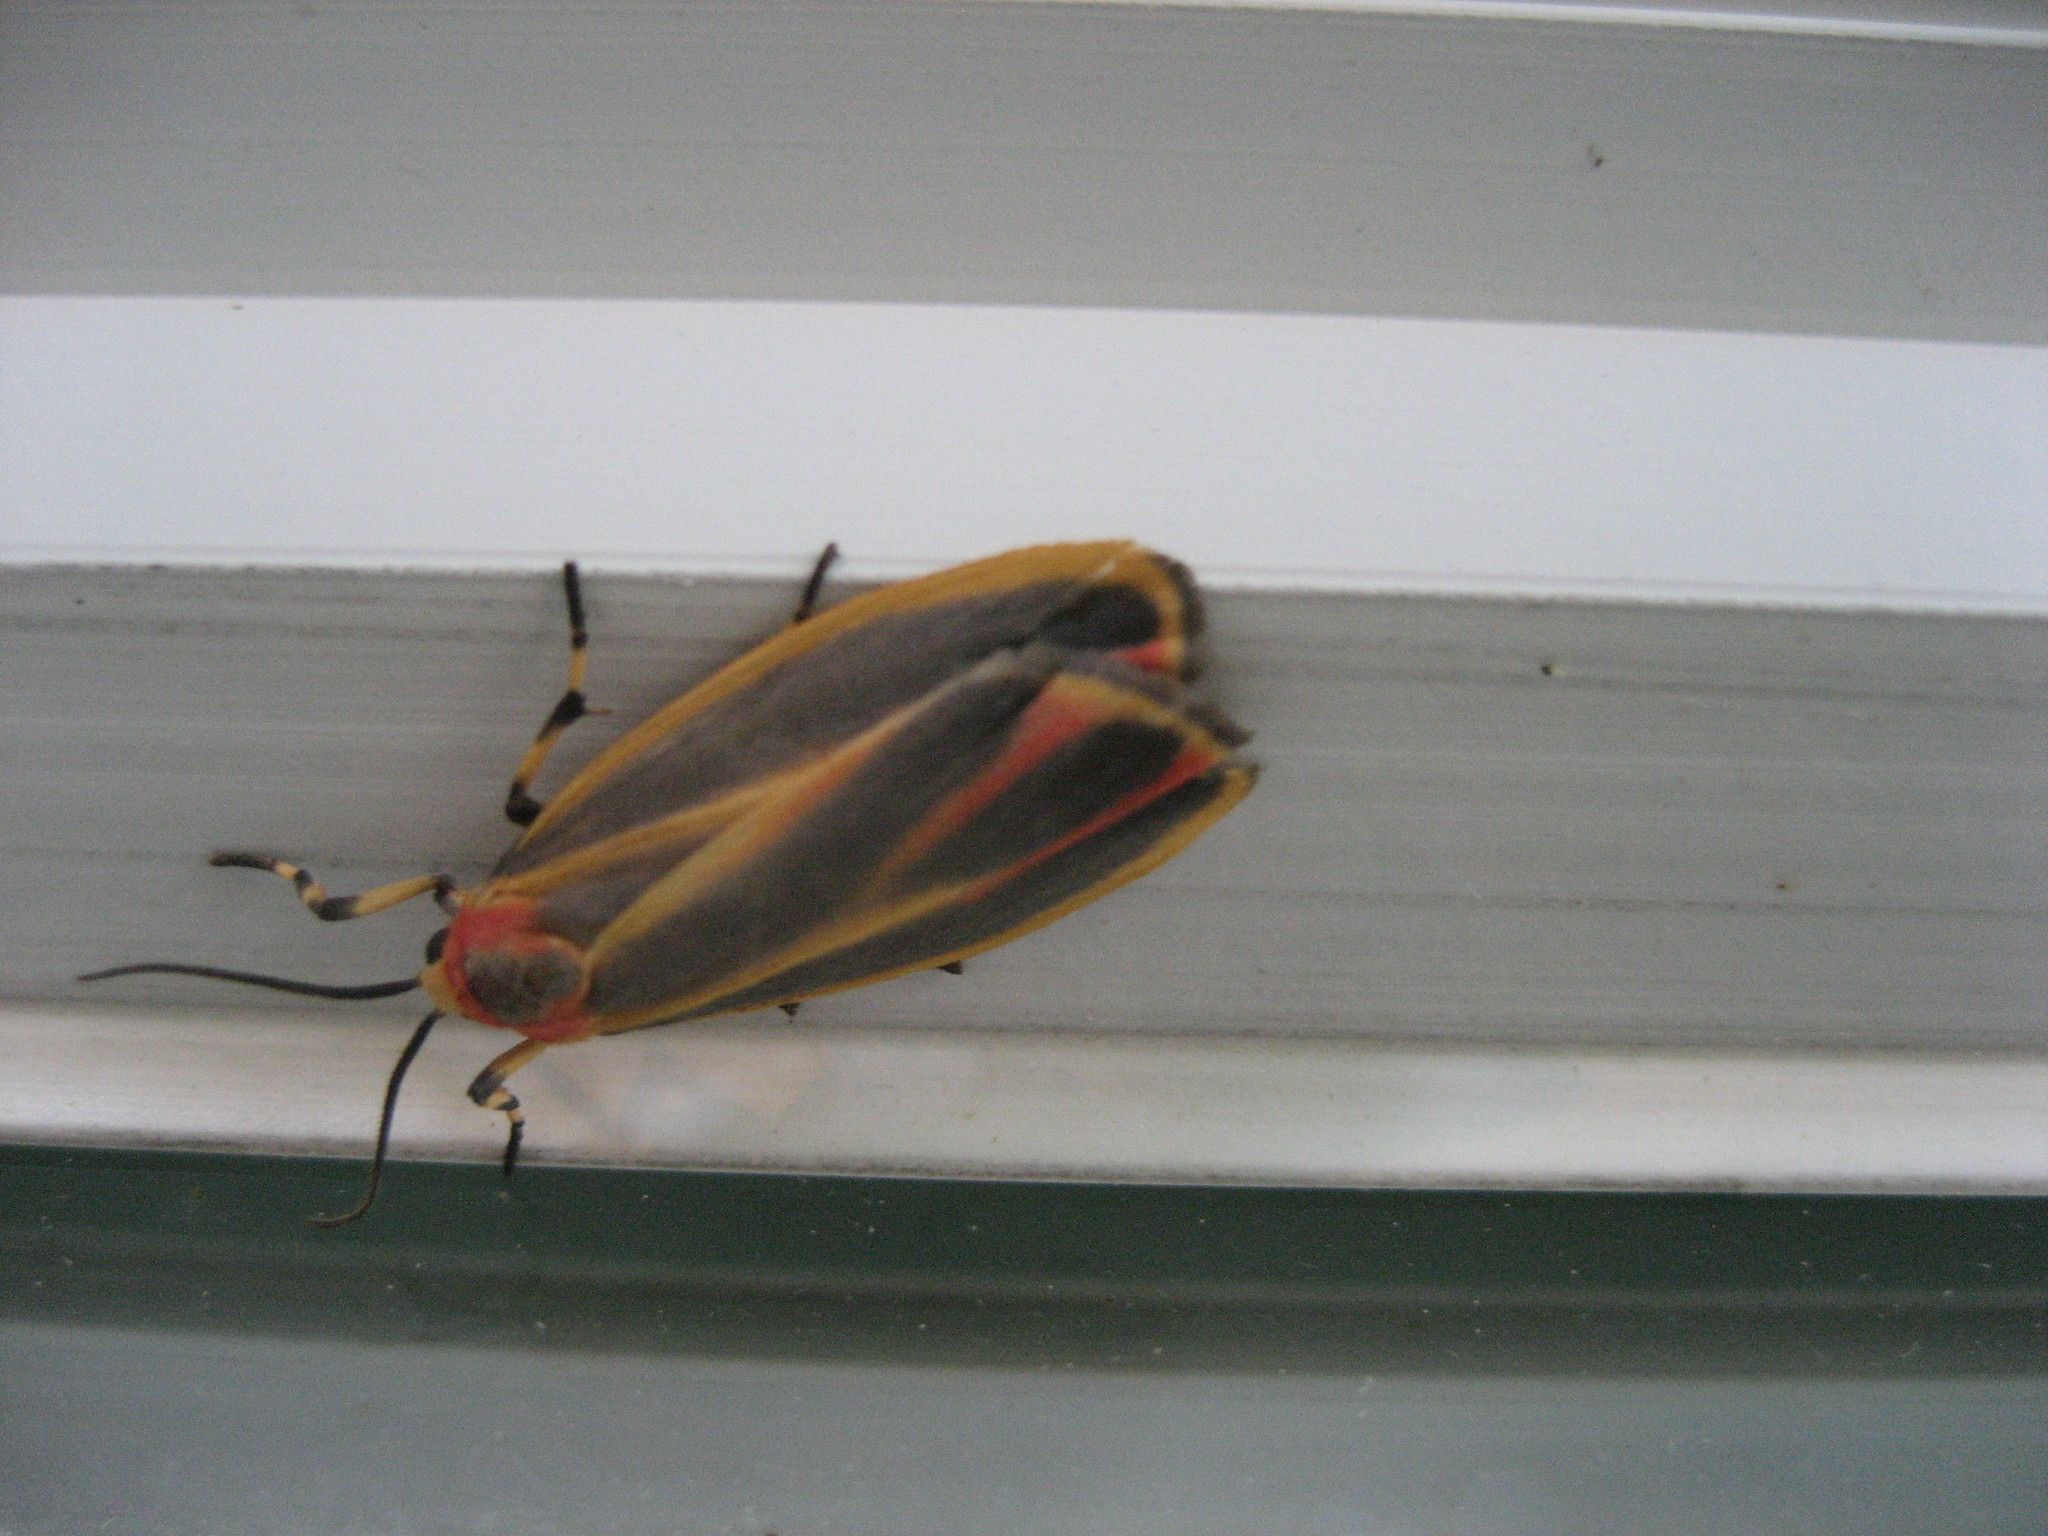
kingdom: Animalia
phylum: Arthropoda
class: Insecta
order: Lepidoptera
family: Erebidae
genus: Hypoprepia
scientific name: Hypoprepia fucosa
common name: Painted lichen moth
